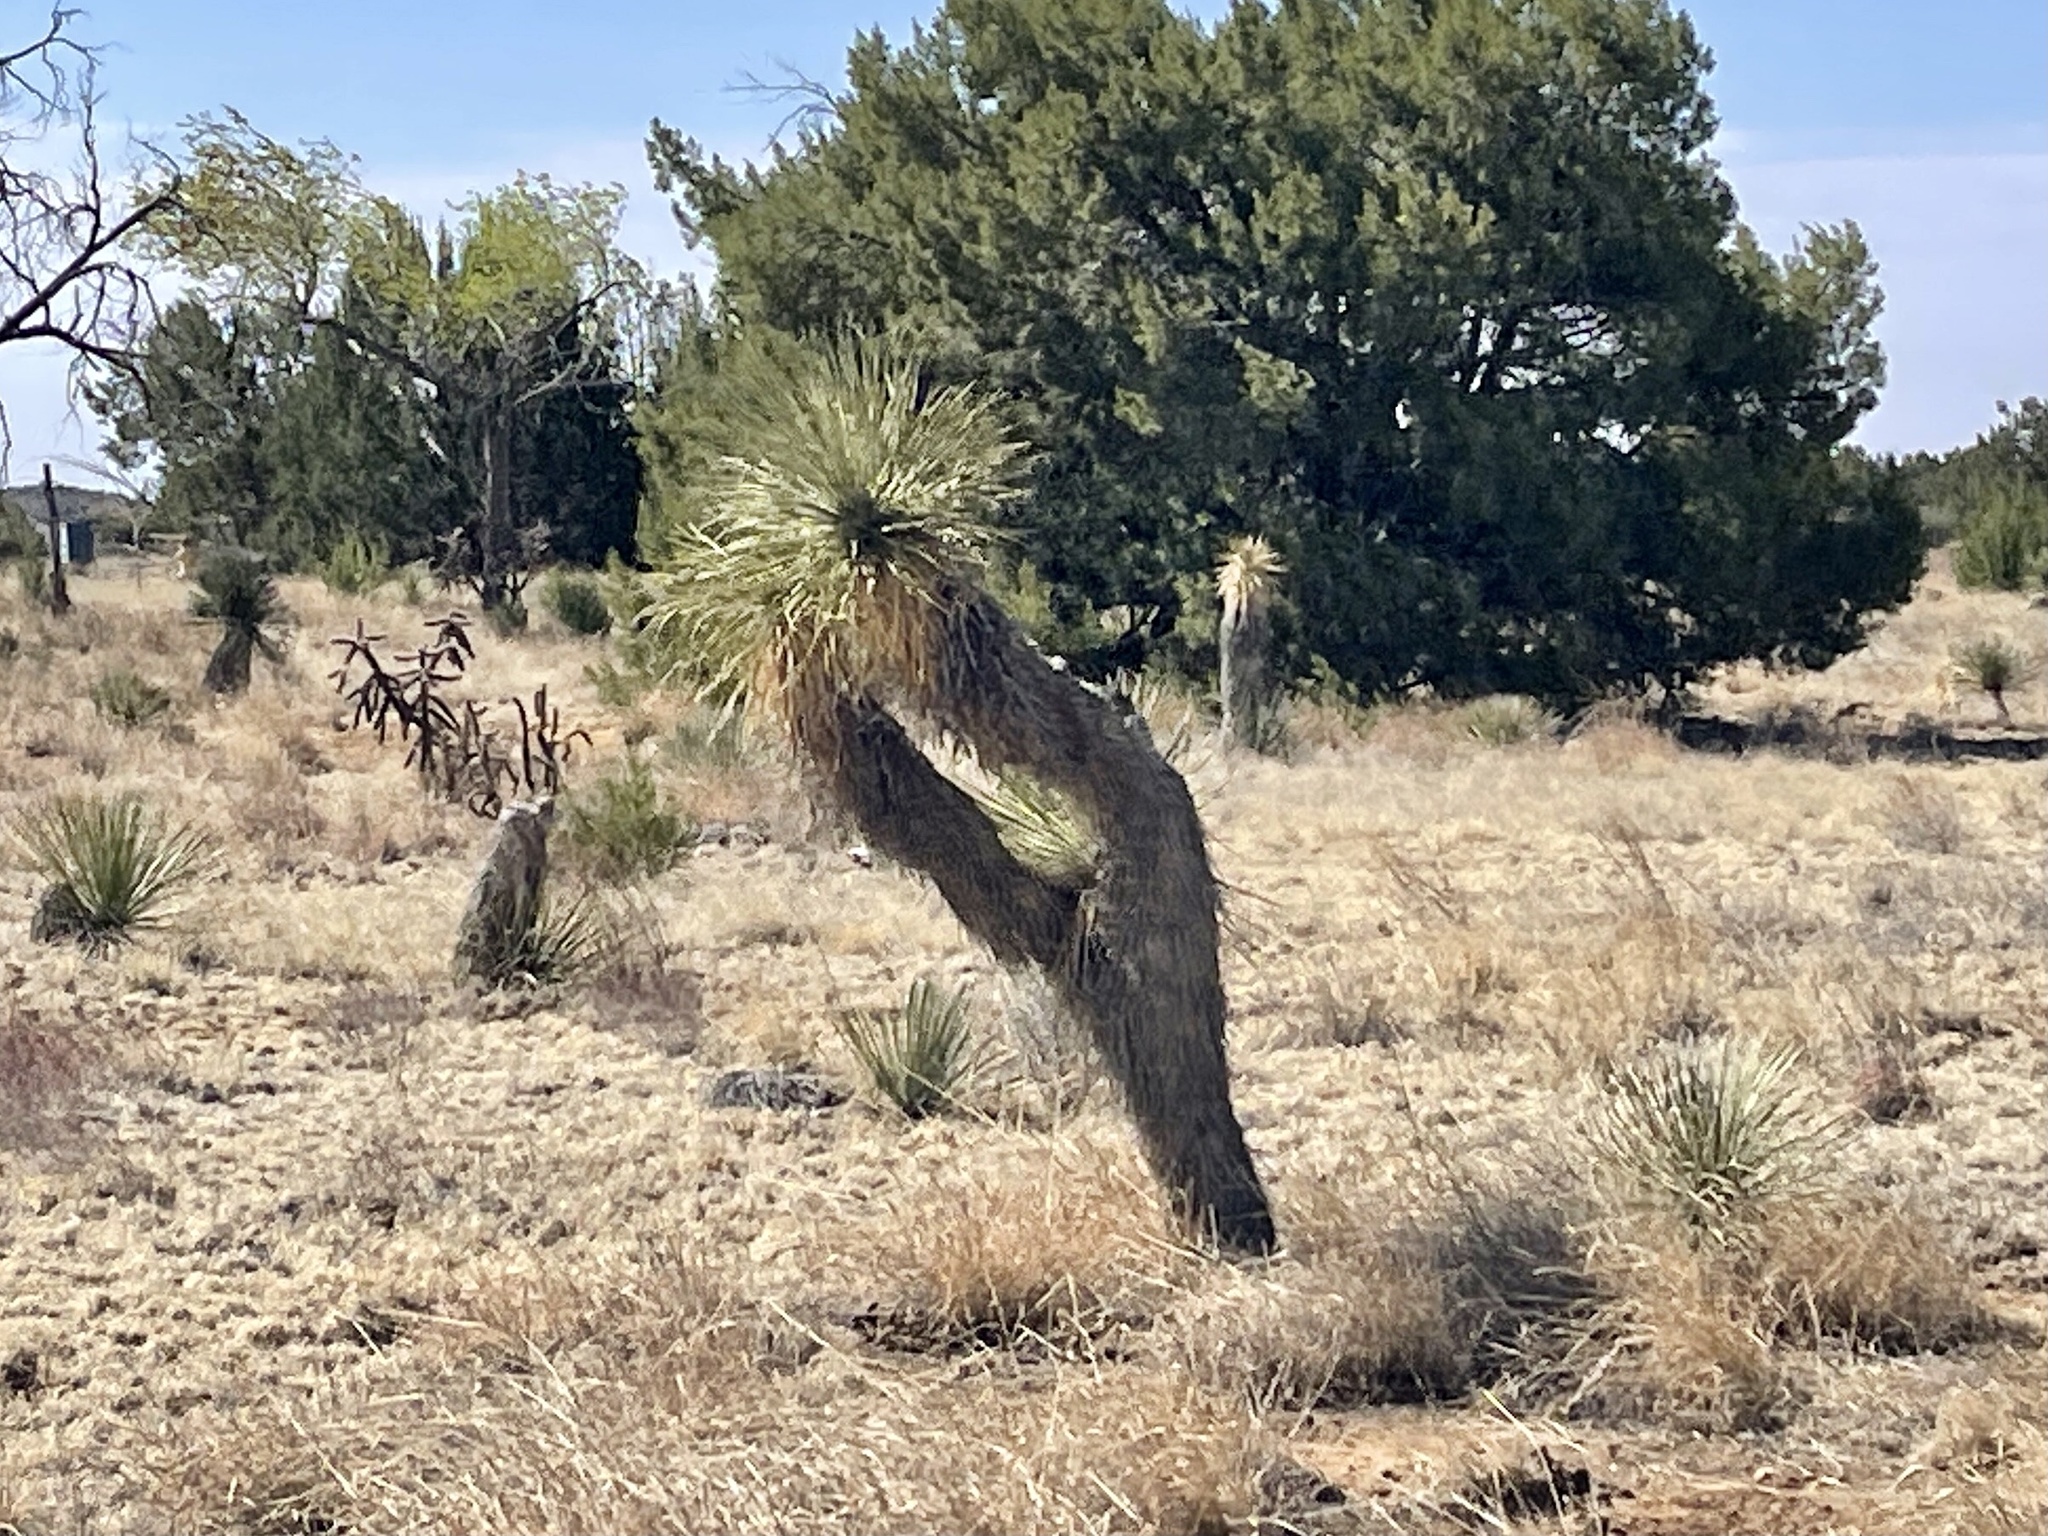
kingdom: Plantae
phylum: Tracheophyta
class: Liliopsida
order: Asparagales
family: Asparagaceae
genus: Yucca
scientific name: Yucca elata
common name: Palmella
